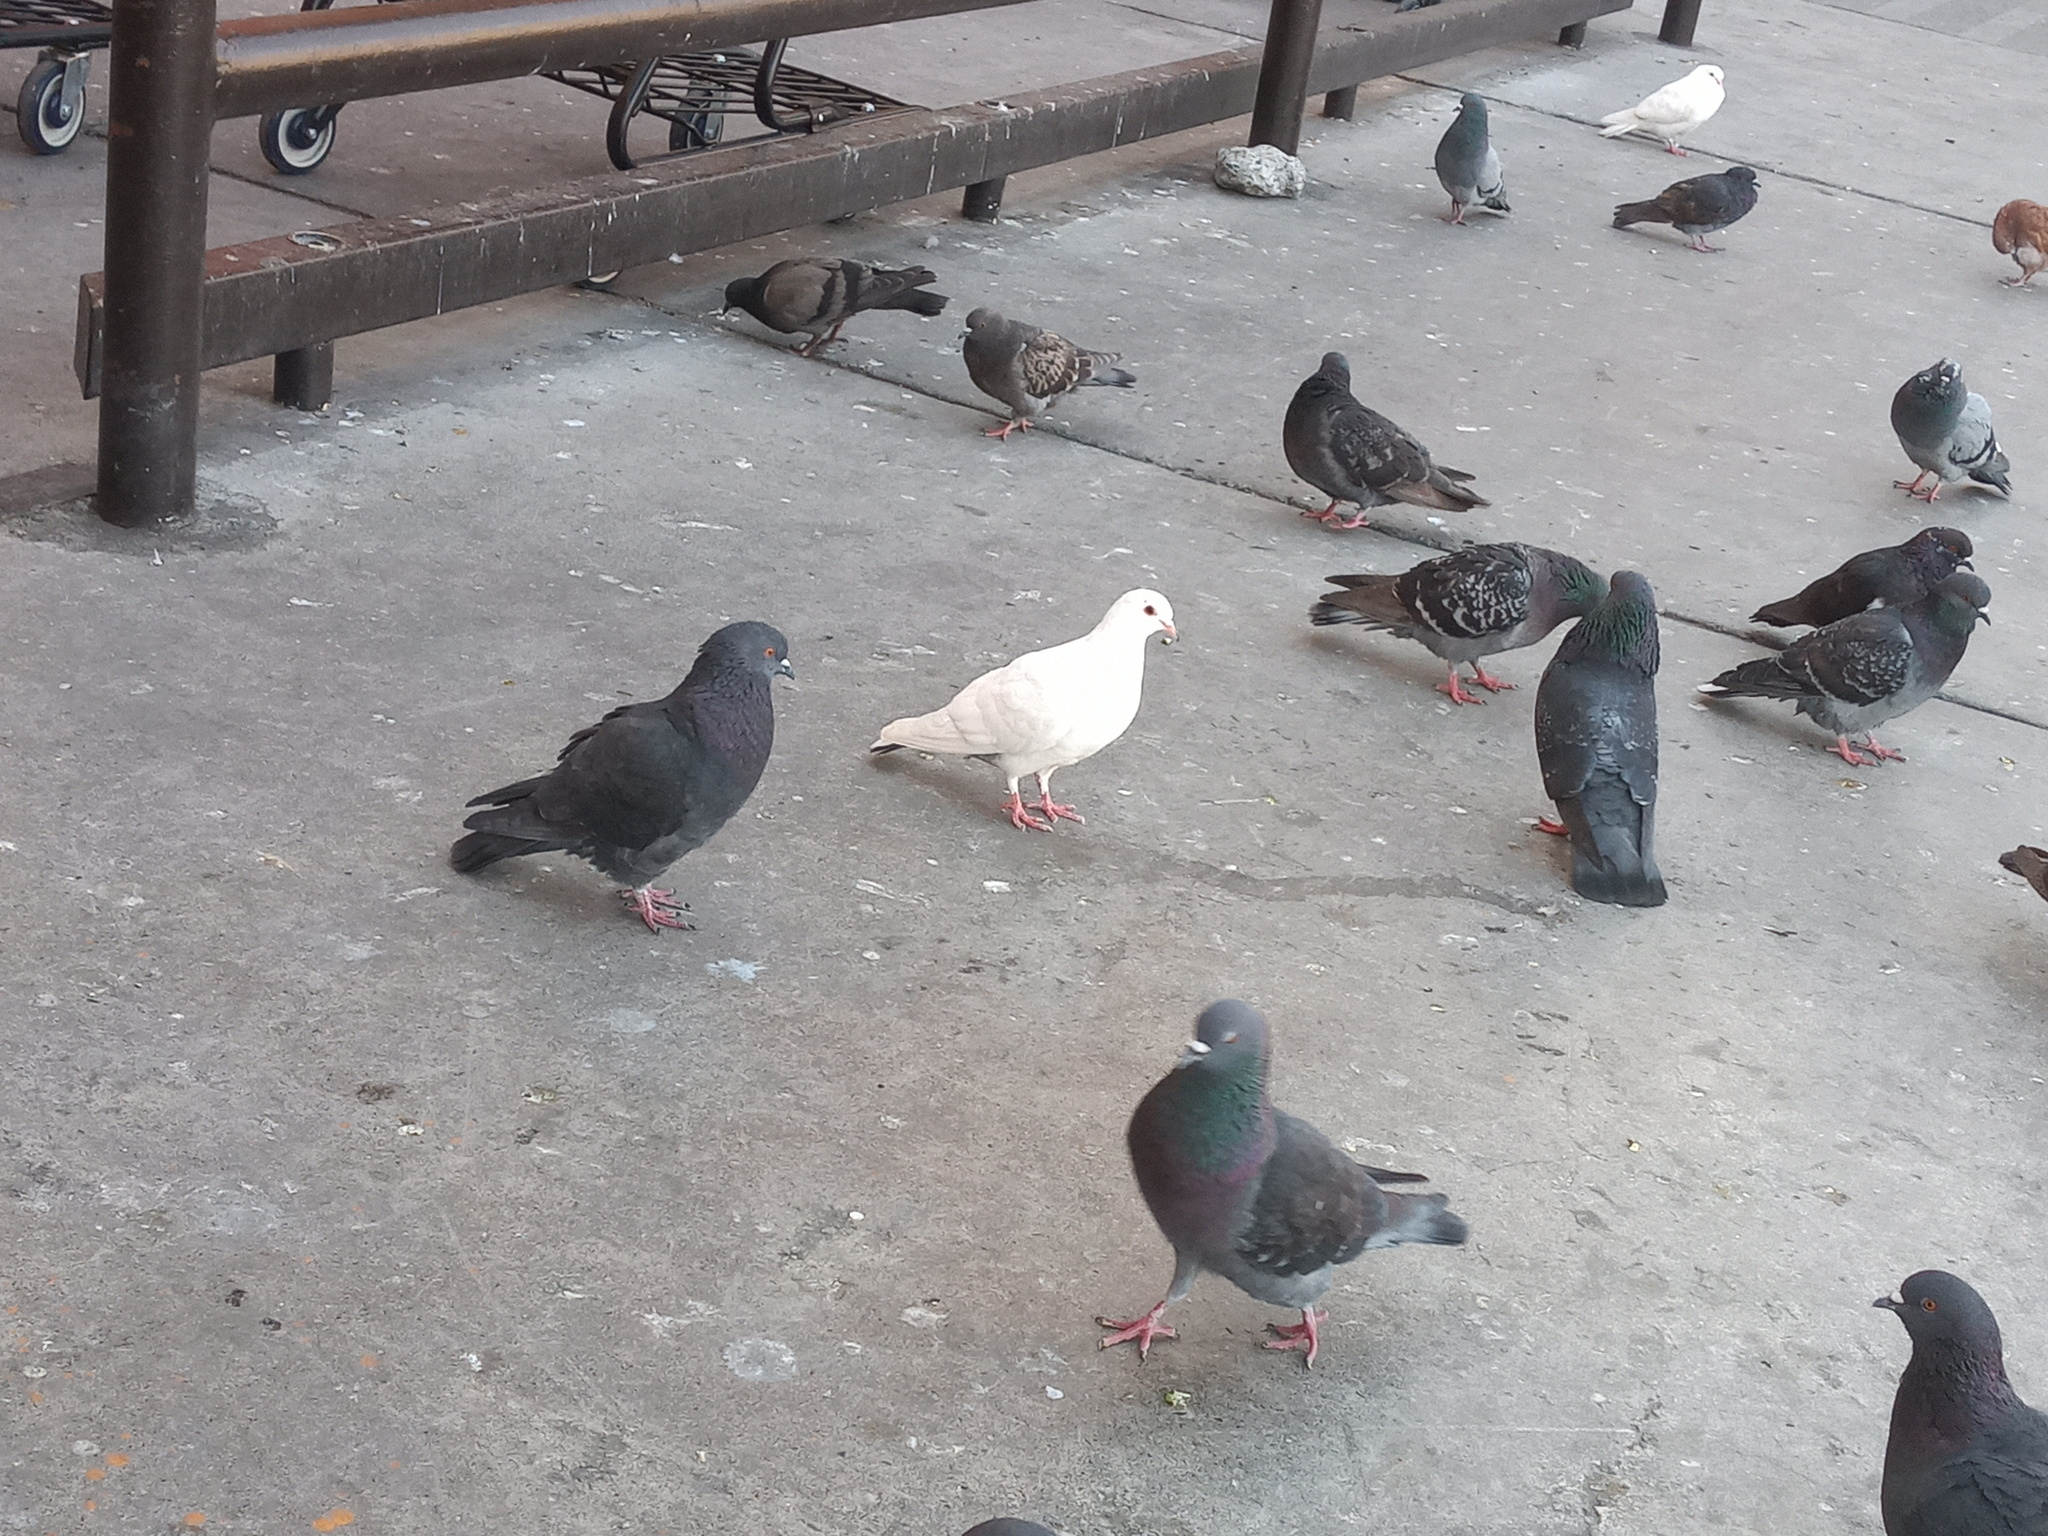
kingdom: Animalia
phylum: Chordata
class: Aves
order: Columbiformes
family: Columbidae
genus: Columba
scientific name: Columba livia
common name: Rock pigeon
